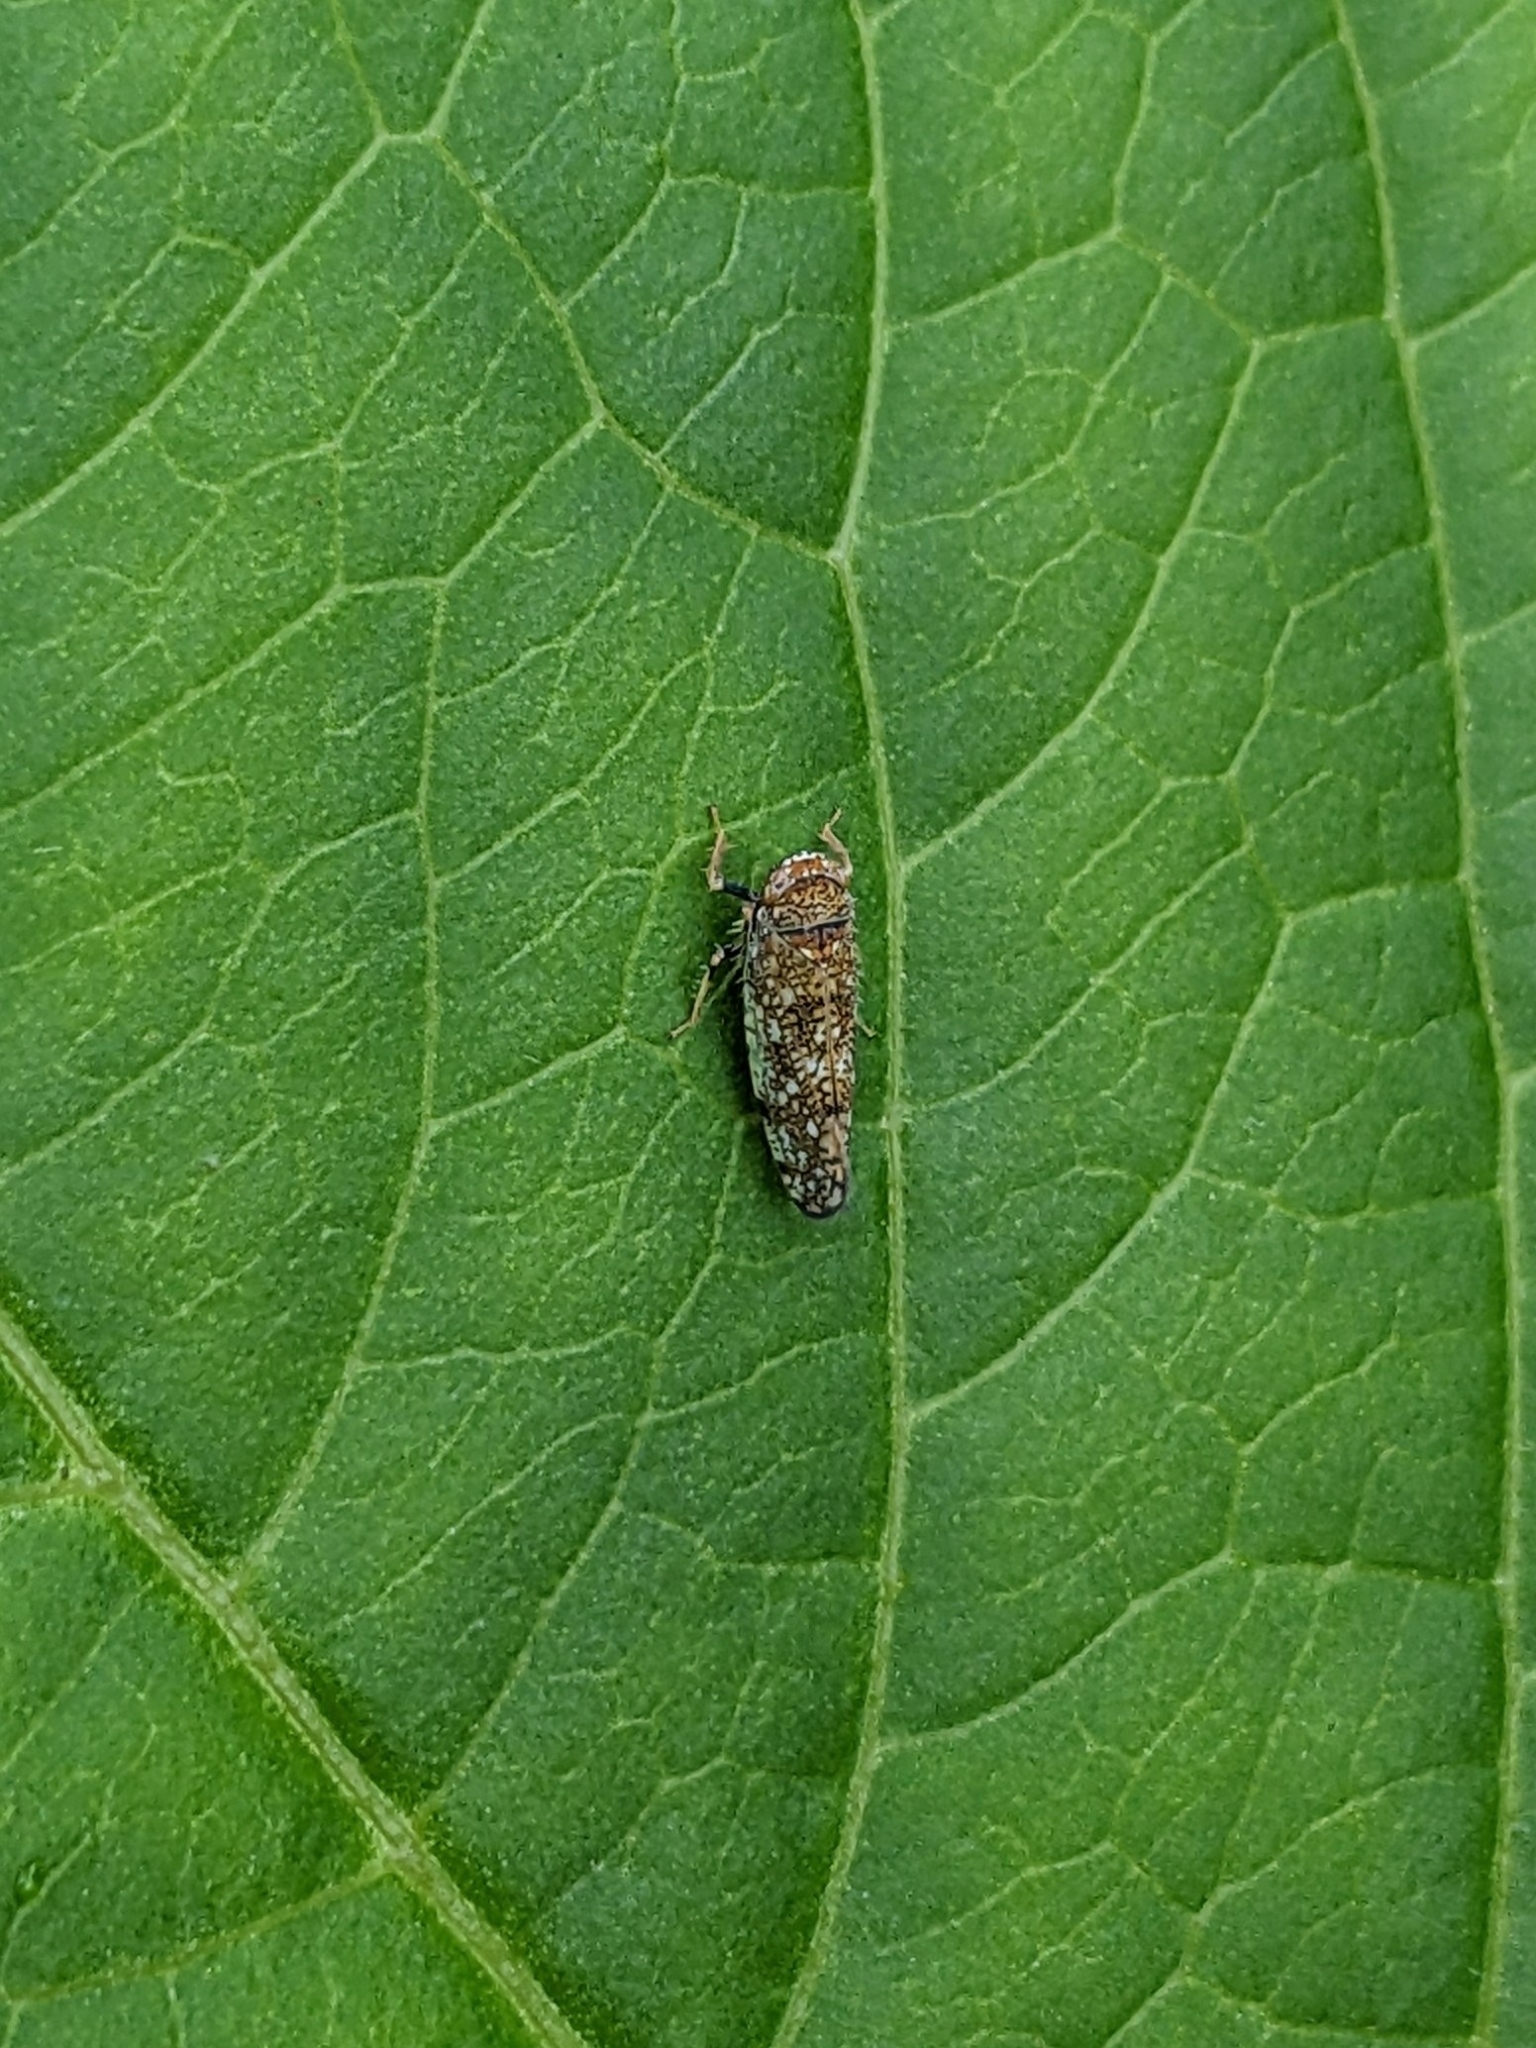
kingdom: Animalia
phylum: Arthropoda
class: Insecta
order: Hemiptera
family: Cicadellidae
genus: Orientus
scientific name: Orientus ishidae
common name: Japanese leafhopper
